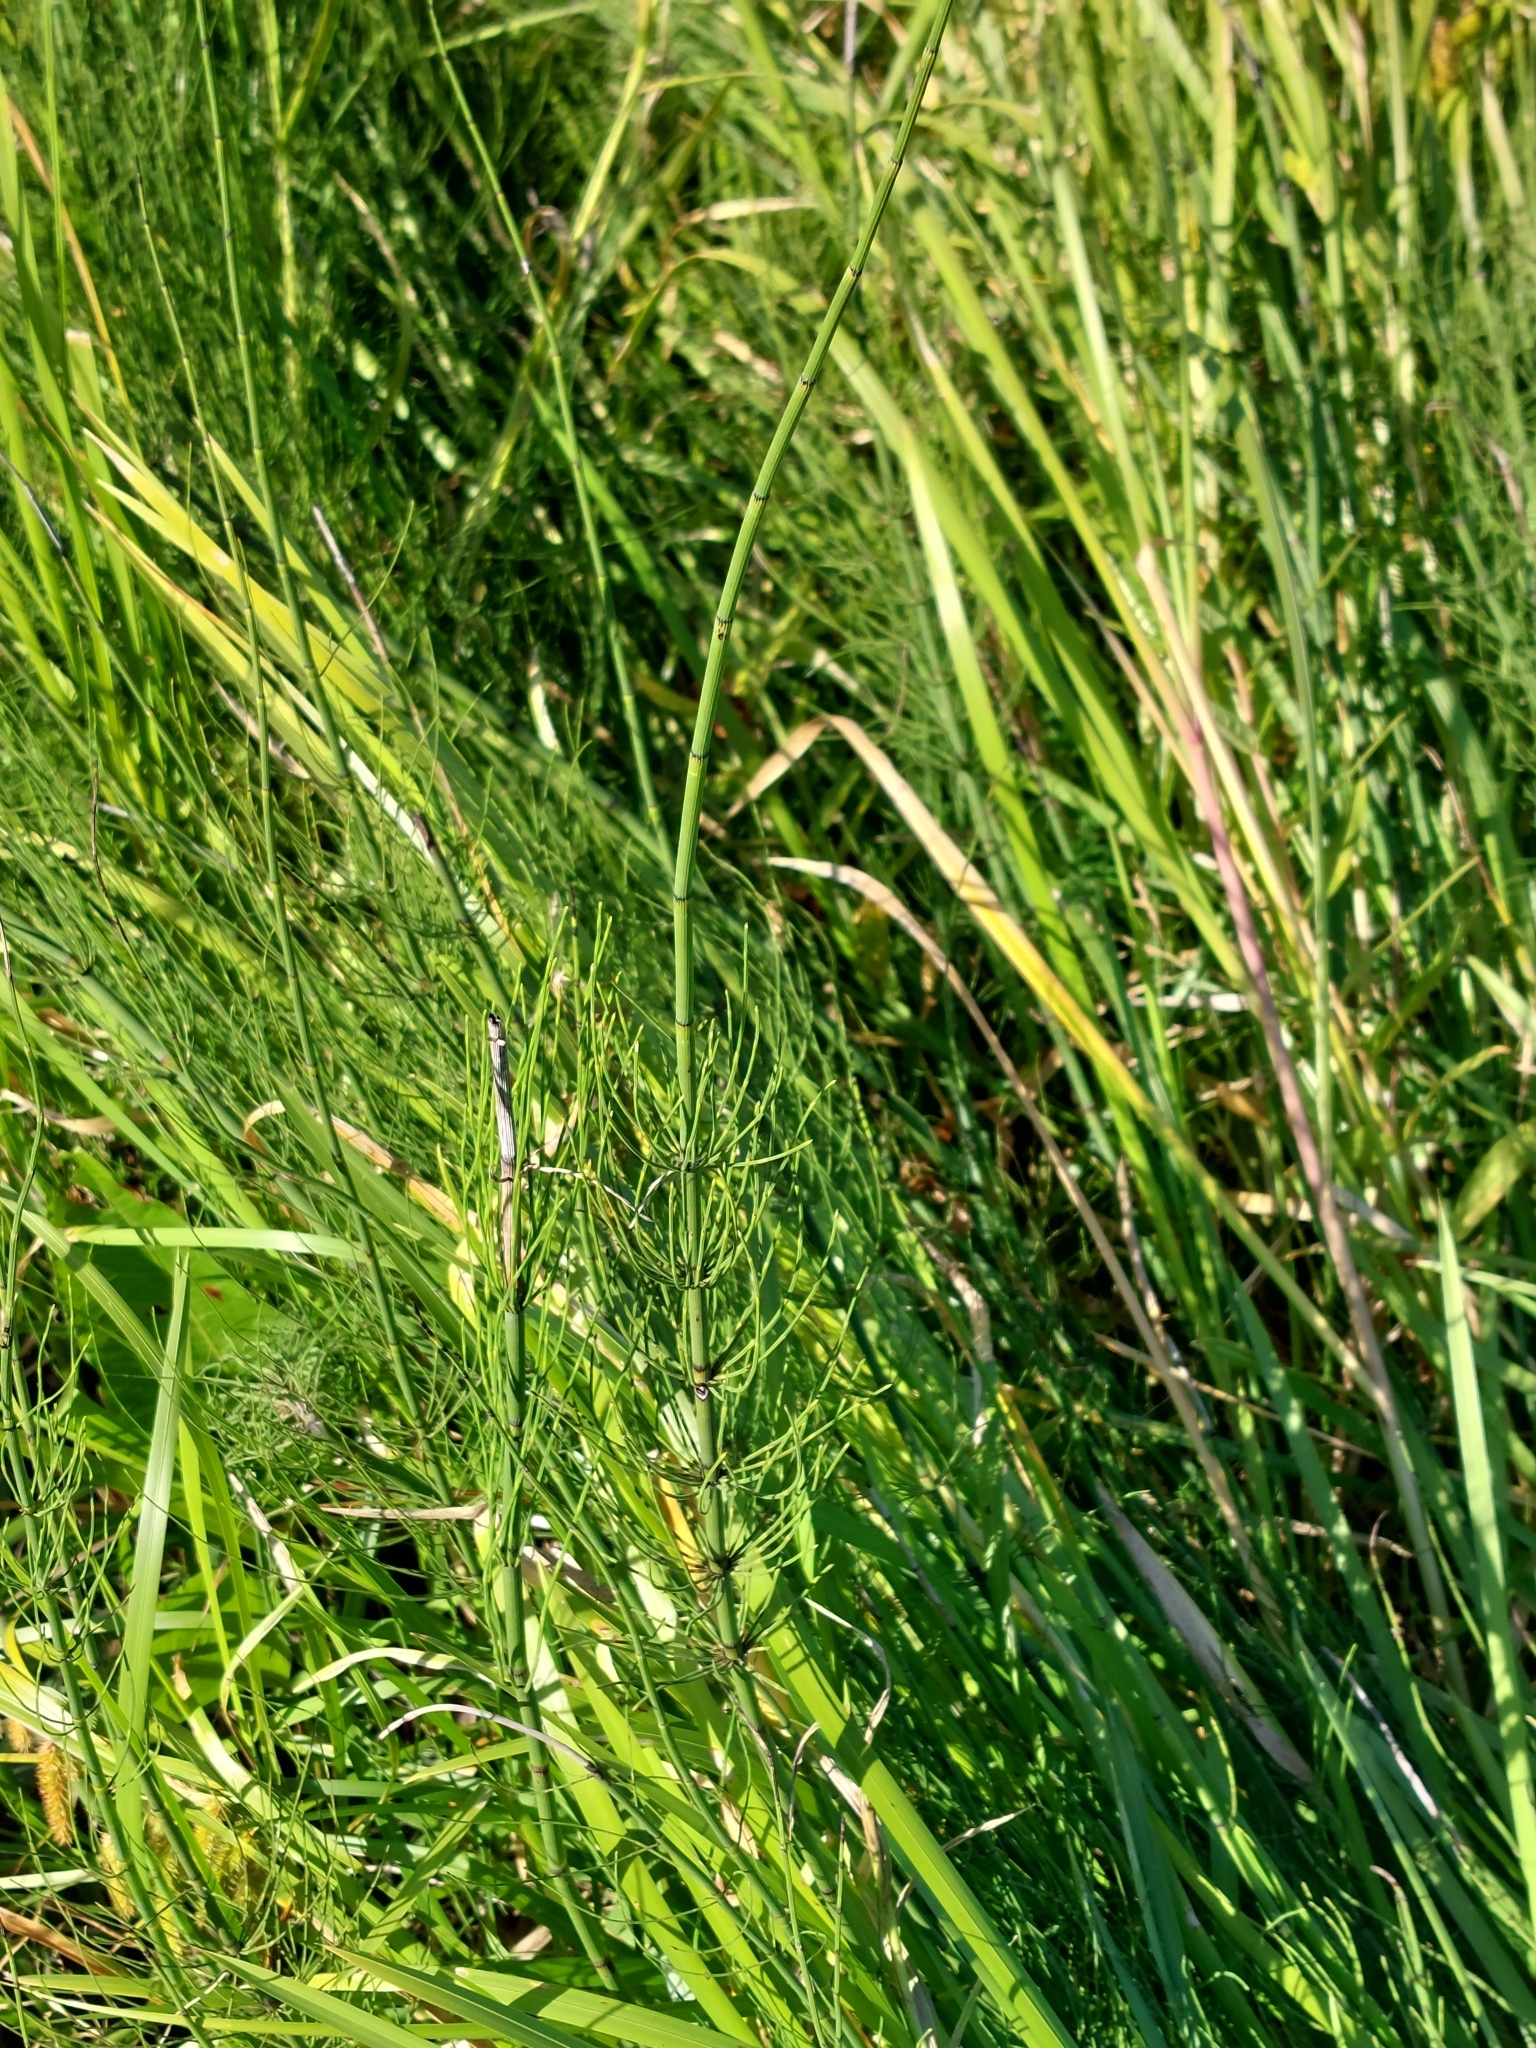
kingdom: Plantae
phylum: Tracheophyta
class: Polypodiopsida
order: Equisetales
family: Equisetaceae
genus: Equisetum
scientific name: Equisetum fluviatile
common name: Water horsetail
